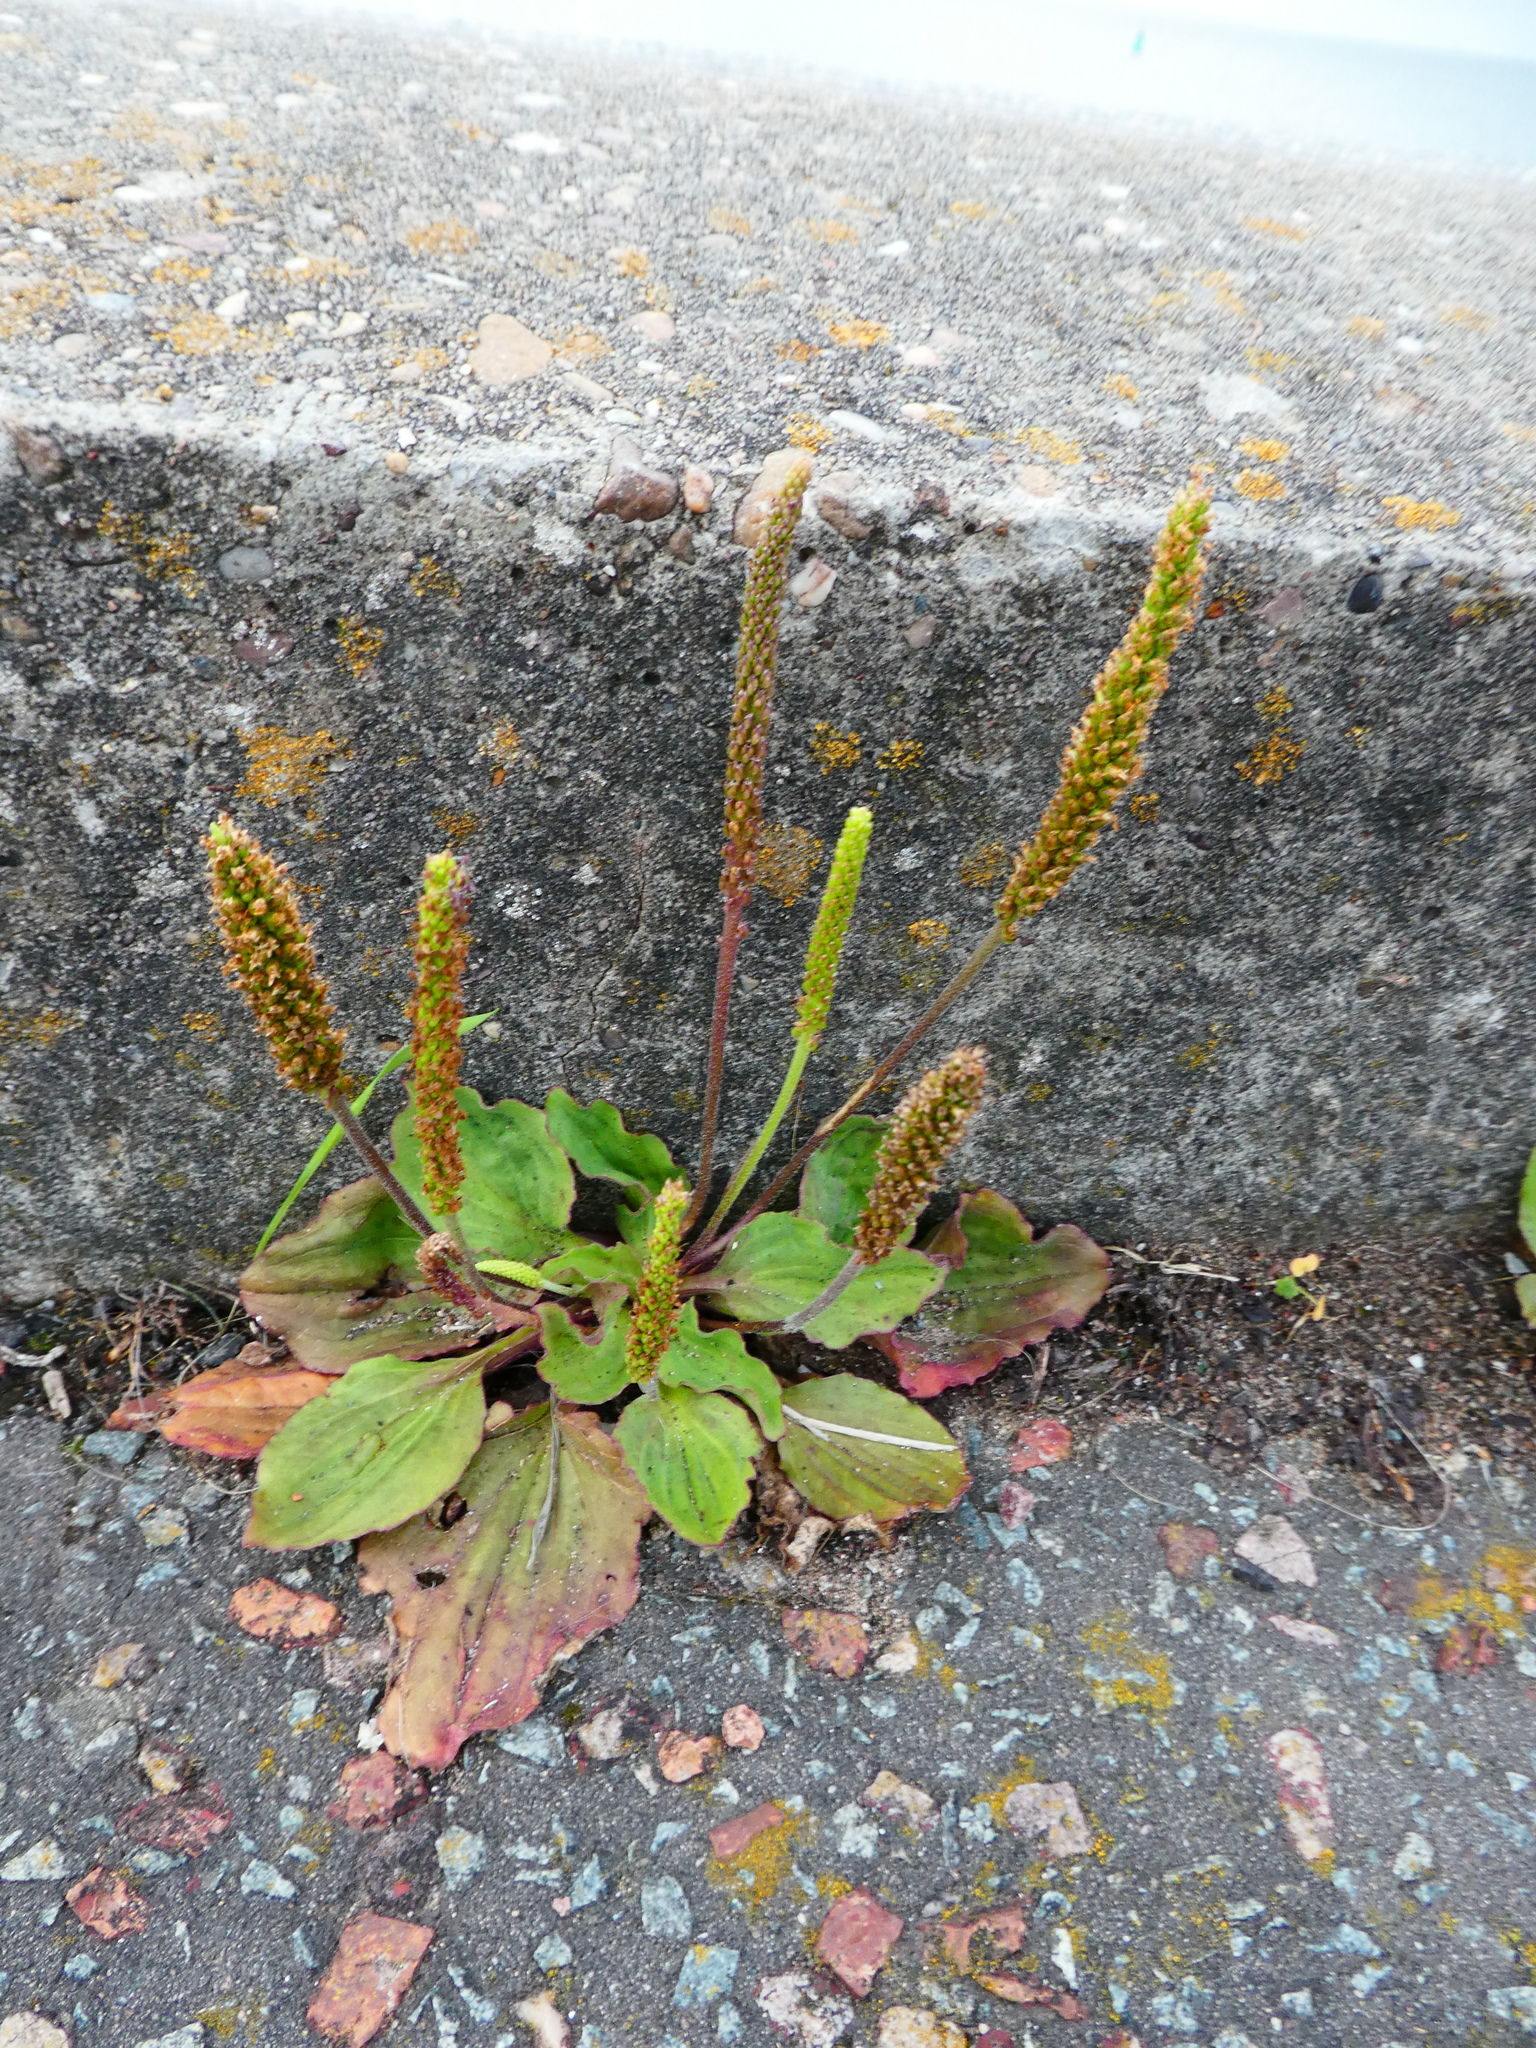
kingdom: Plantae
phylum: Tracheophyta
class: Magnoliopsida
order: Lamiales
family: Plantaginaceae
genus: Plantago
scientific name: Plantago major
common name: Common plantain
